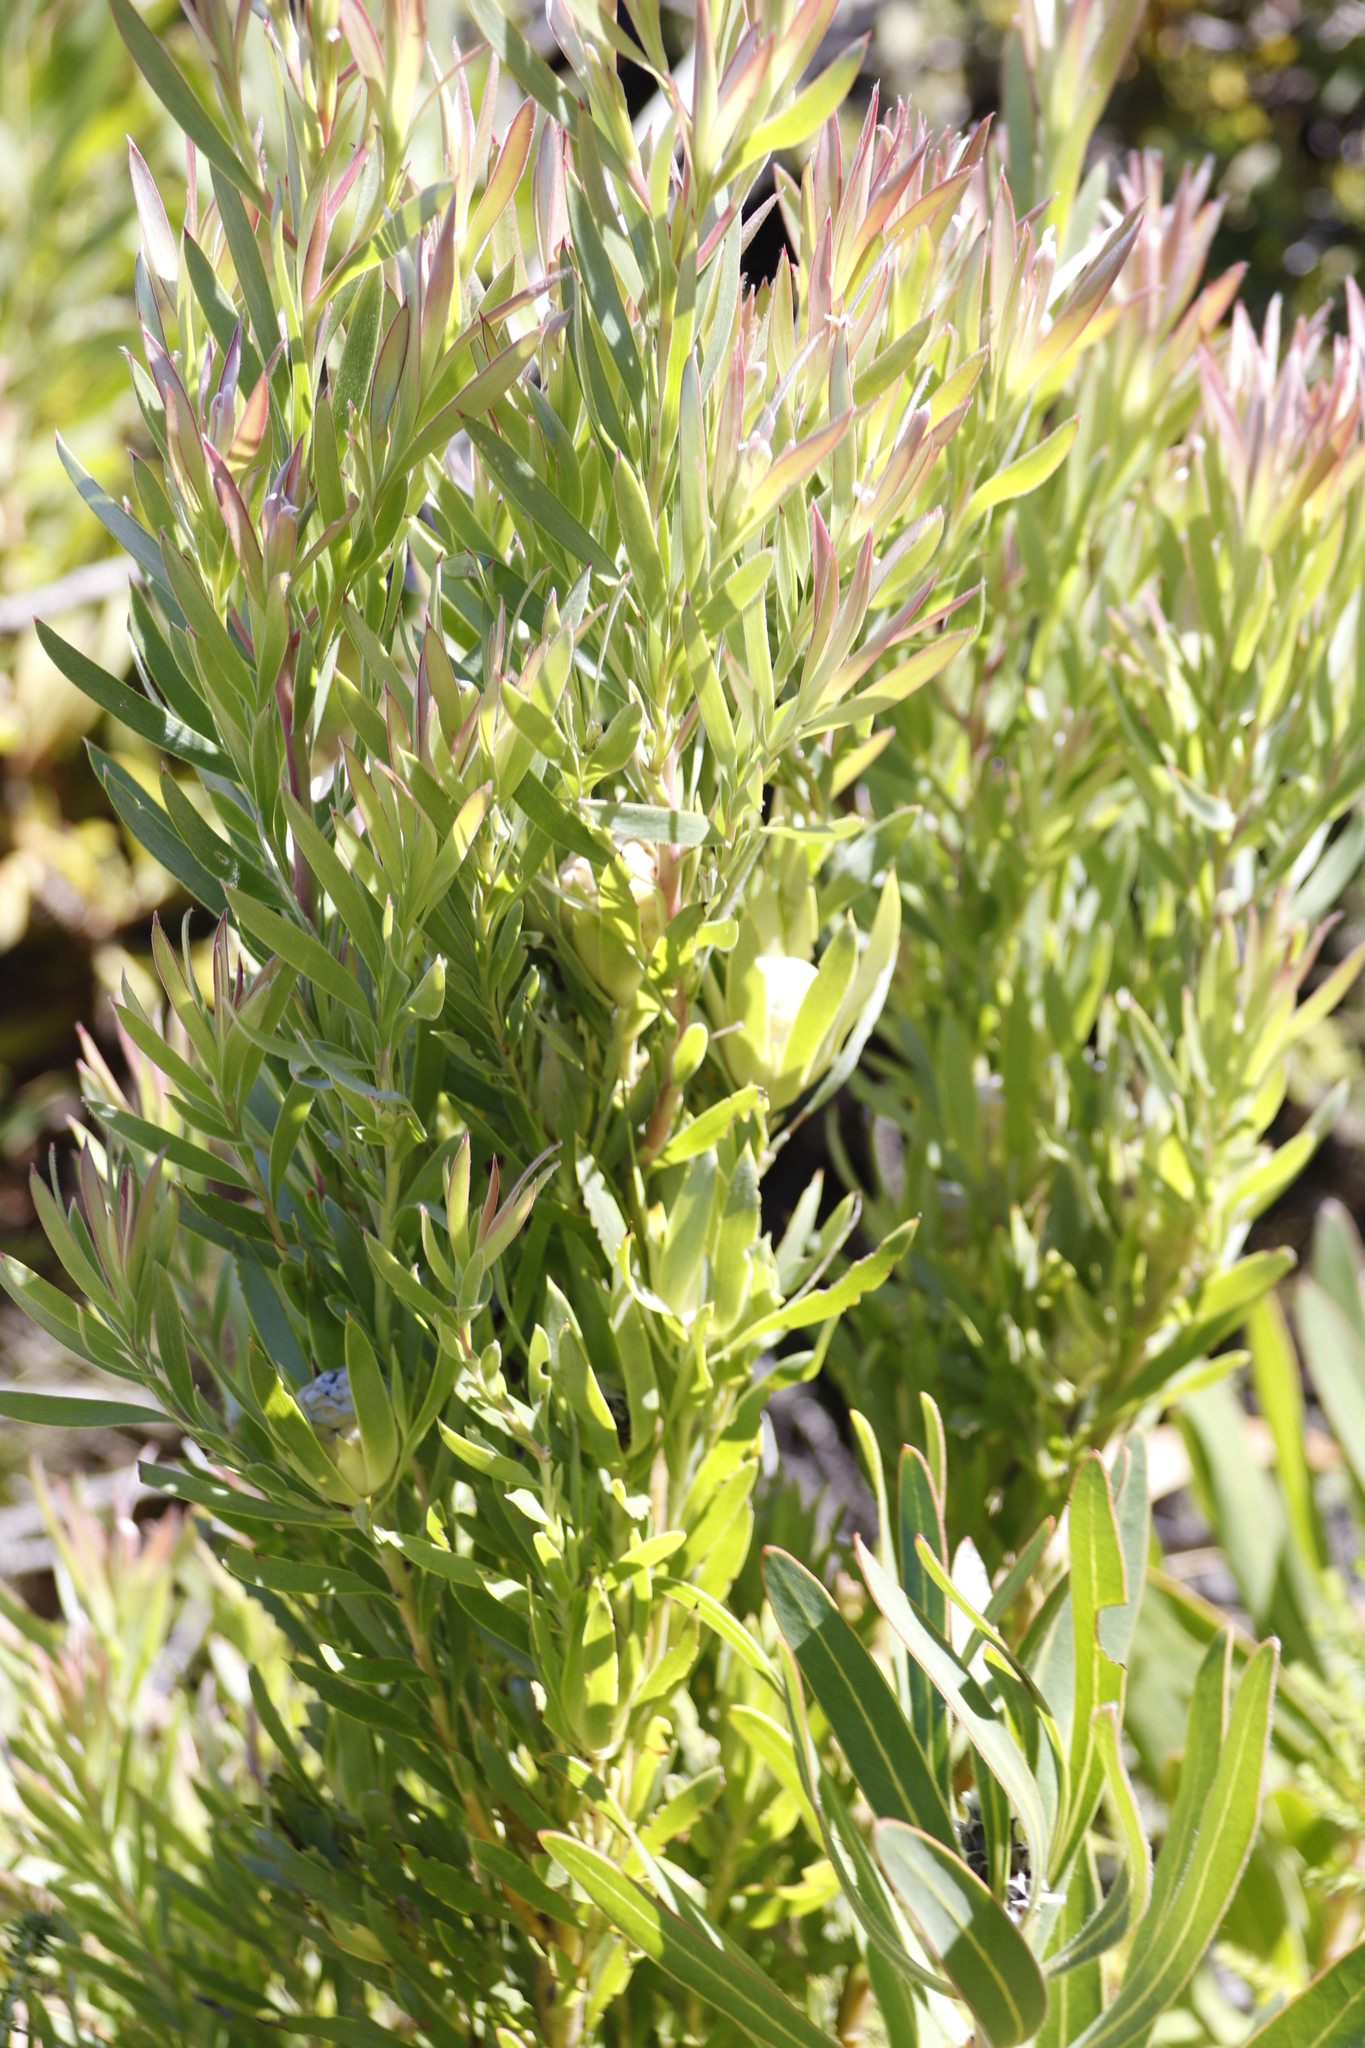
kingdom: Plantae
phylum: Tracheophyta
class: Magnoliopsida
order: Proteales
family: Proteaceae
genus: Leucadendron
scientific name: Leucadendron xanthoconus
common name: Sickle-leaf conebush
